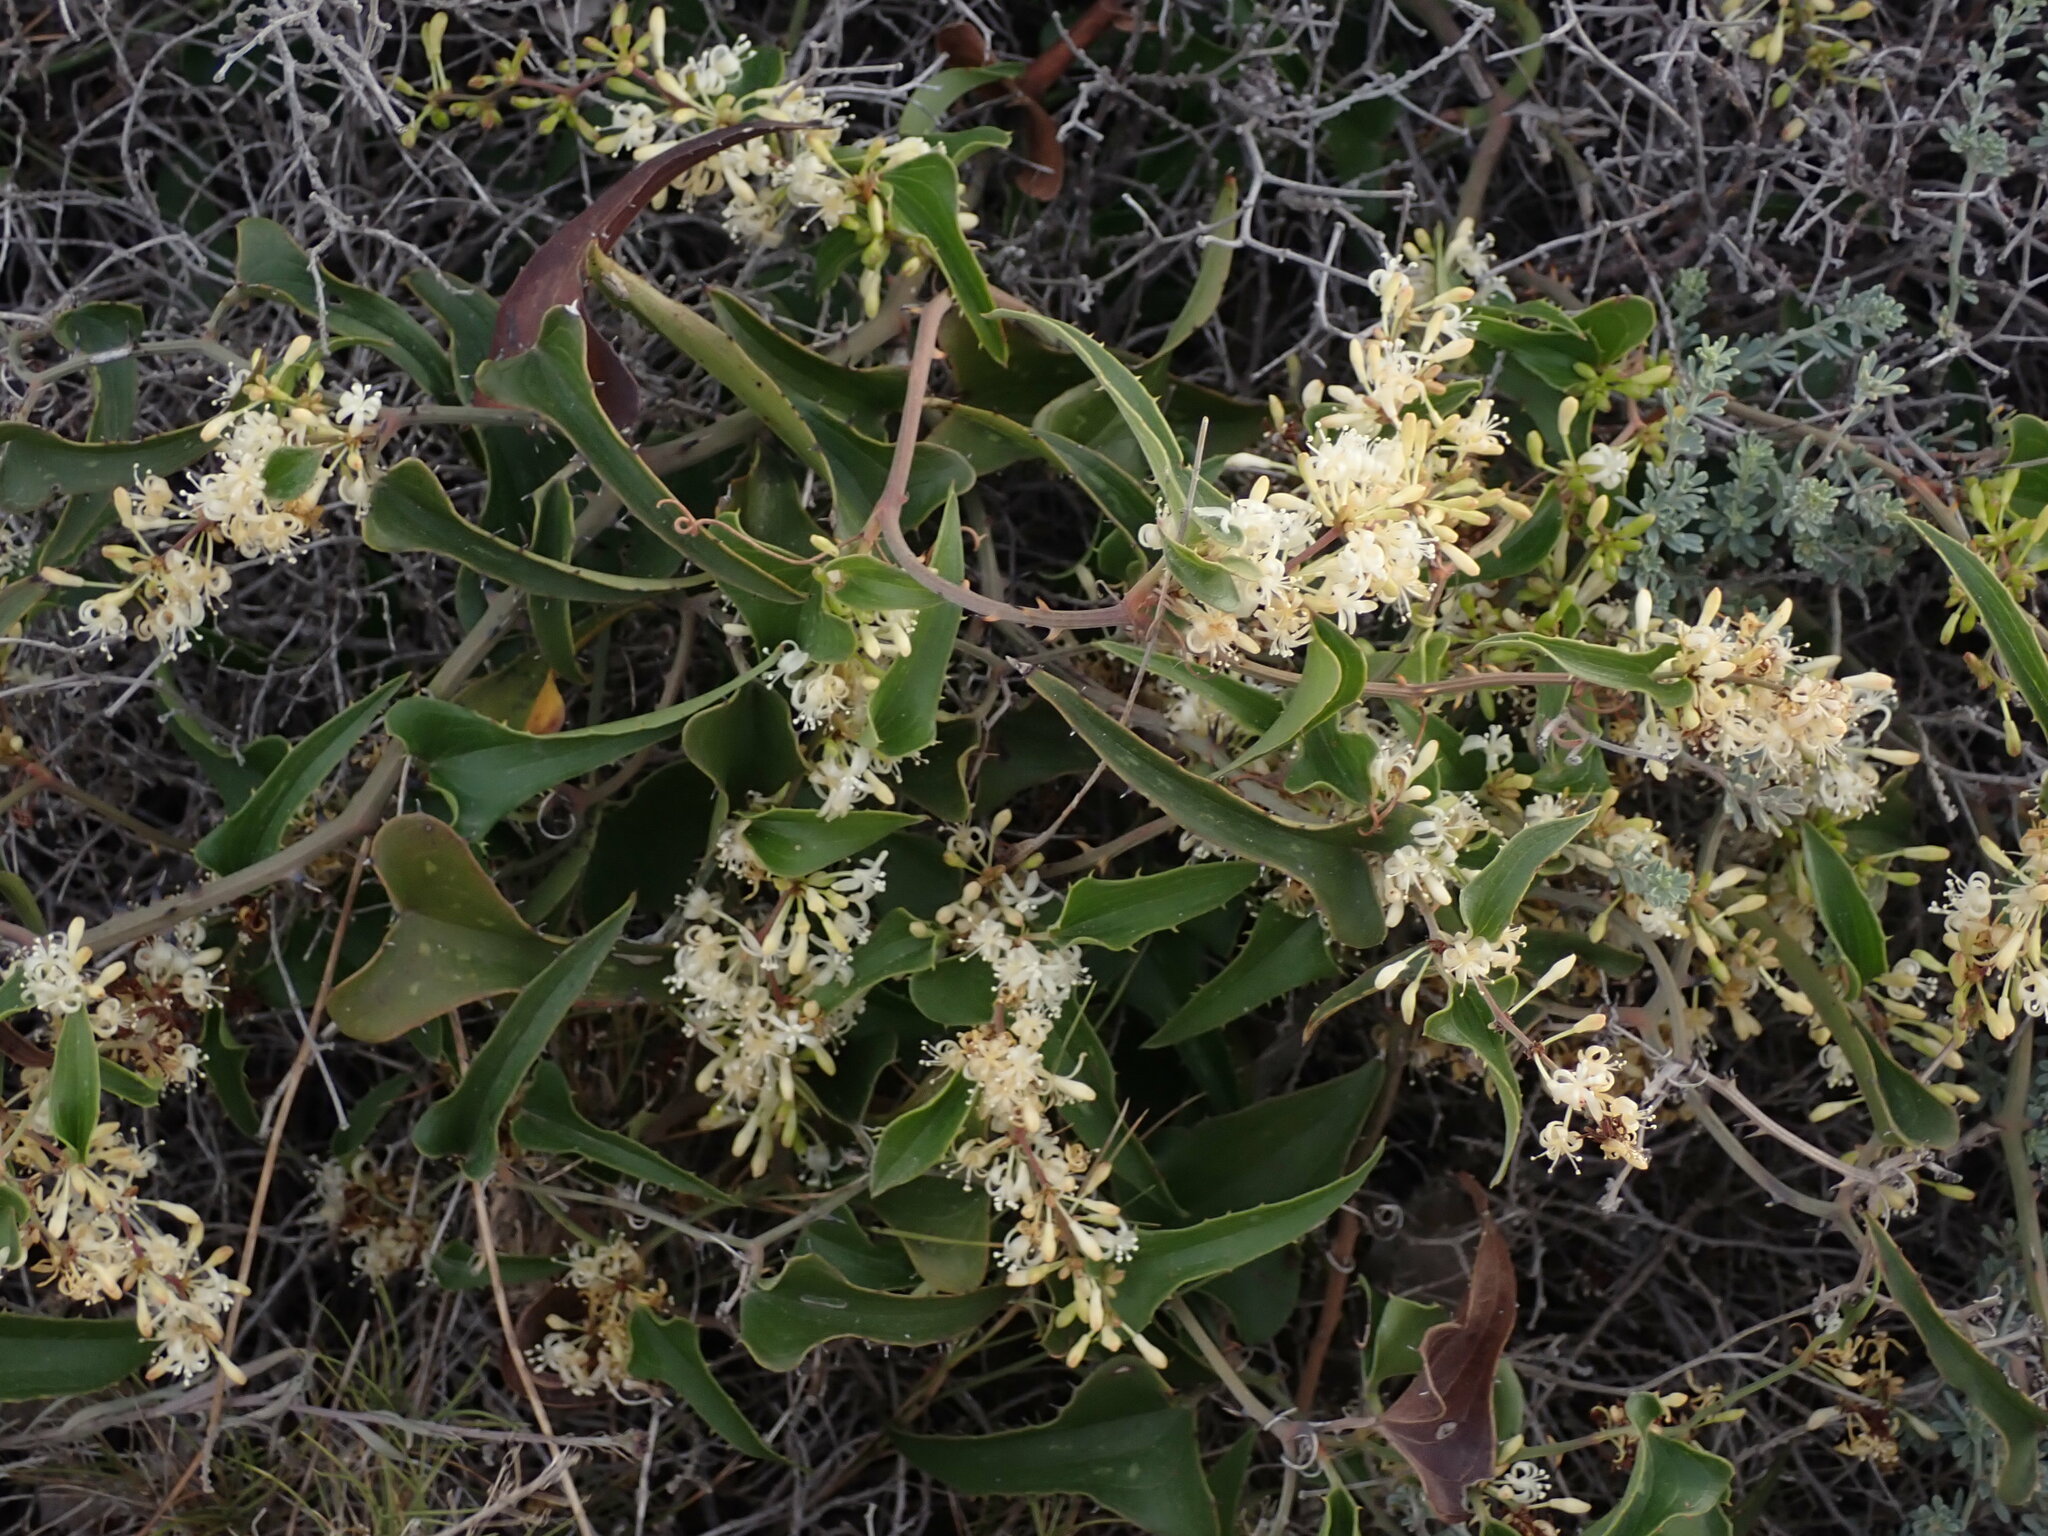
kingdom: Plantae
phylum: Tracheophyta
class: Liliopsida
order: Liliales
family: Smilacaceae
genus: Smilax
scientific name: Smilax aspera
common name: Common smilax
